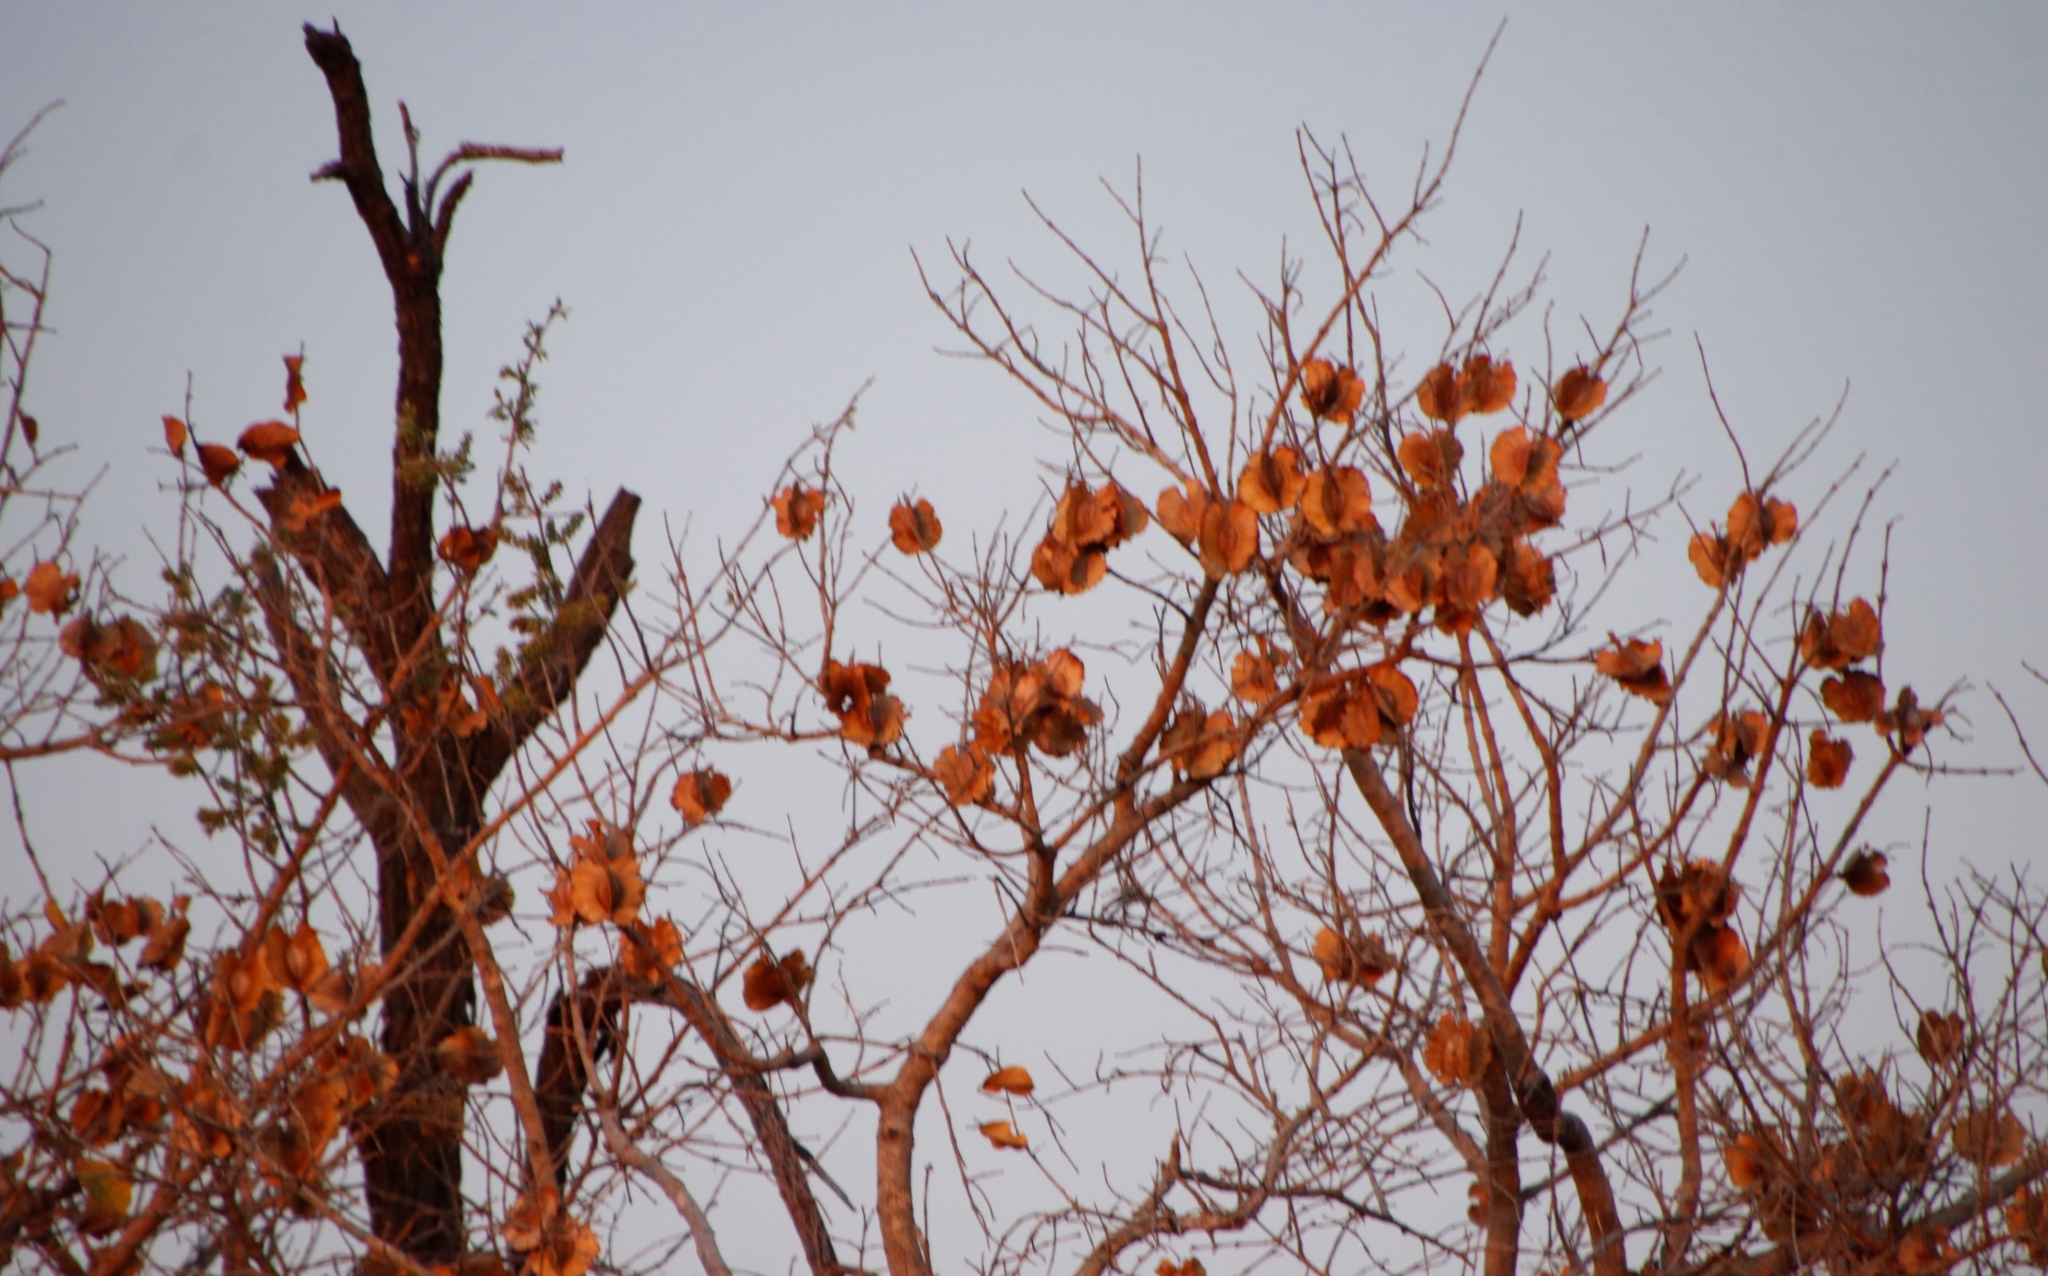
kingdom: Plantae
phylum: Tracheophyta
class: Magnoliopsida
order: Myrtales
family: Combretaceae
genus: Combretum
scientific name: Combretum zeyheri
